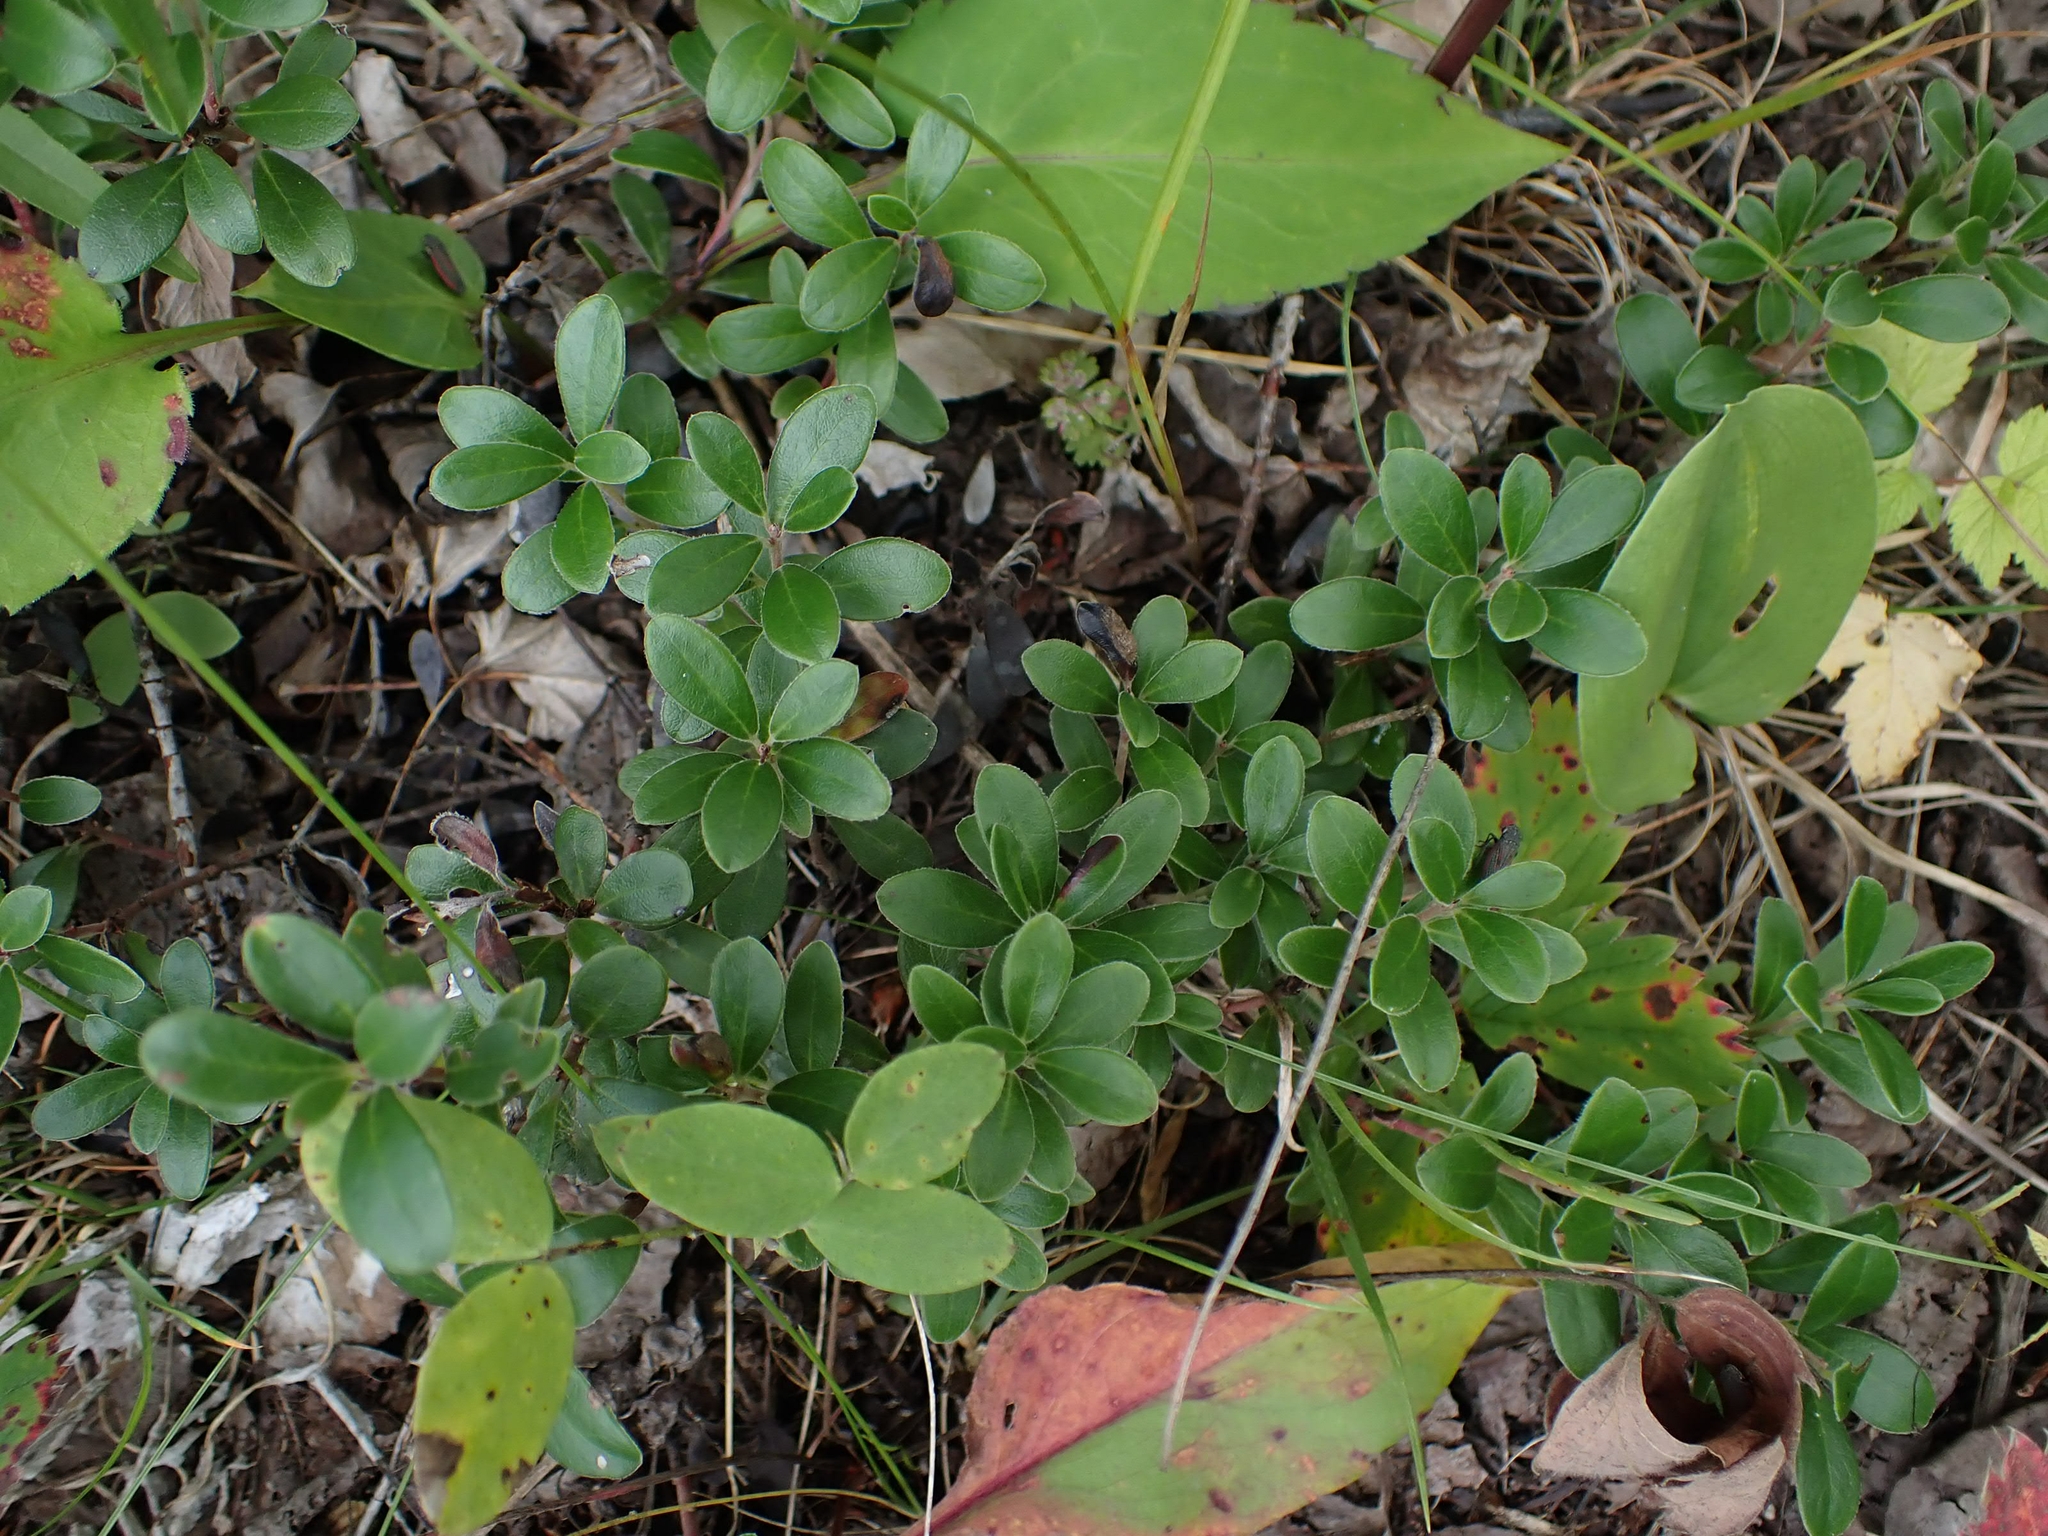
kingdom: Plantae
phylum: Tracheophyta
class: Magnoliopsida
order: Ericales
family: Ericaceae
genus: Arctostaphylos
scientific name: Arctostaphylos uva-ursi
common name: Bearberry
